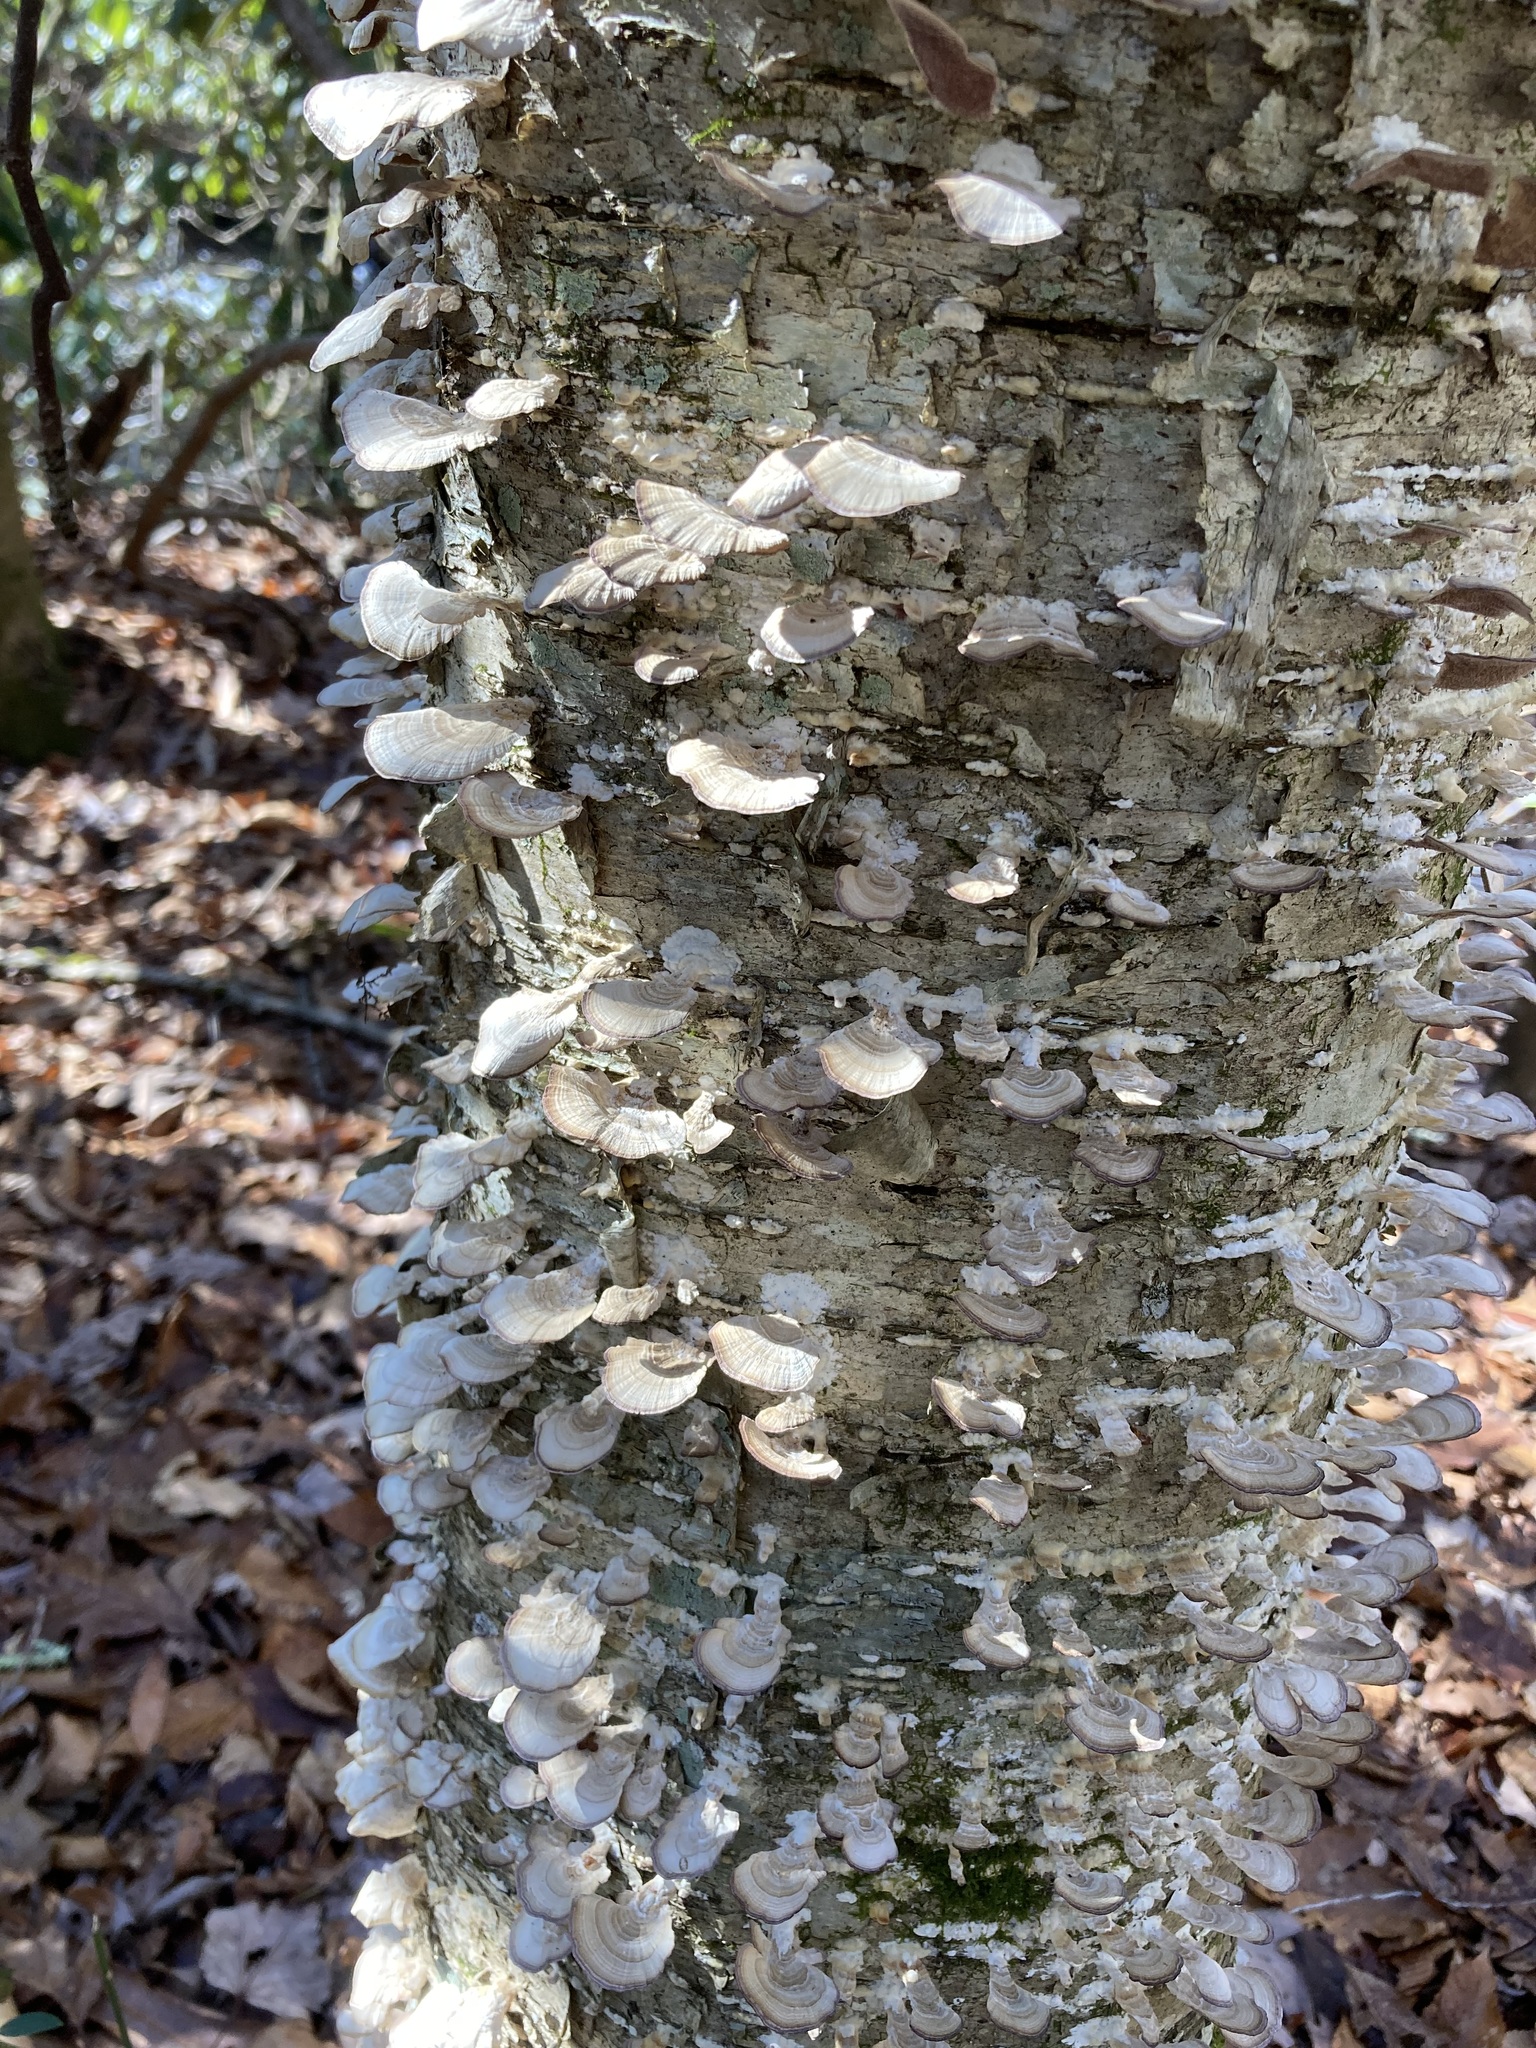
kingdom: Fungi
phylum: Basidiomycota
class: Agaricomycetes
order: Hymenochaetales
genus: Trichaptum
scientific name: Trichaptum biforme
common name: Violet-toothed polypore
